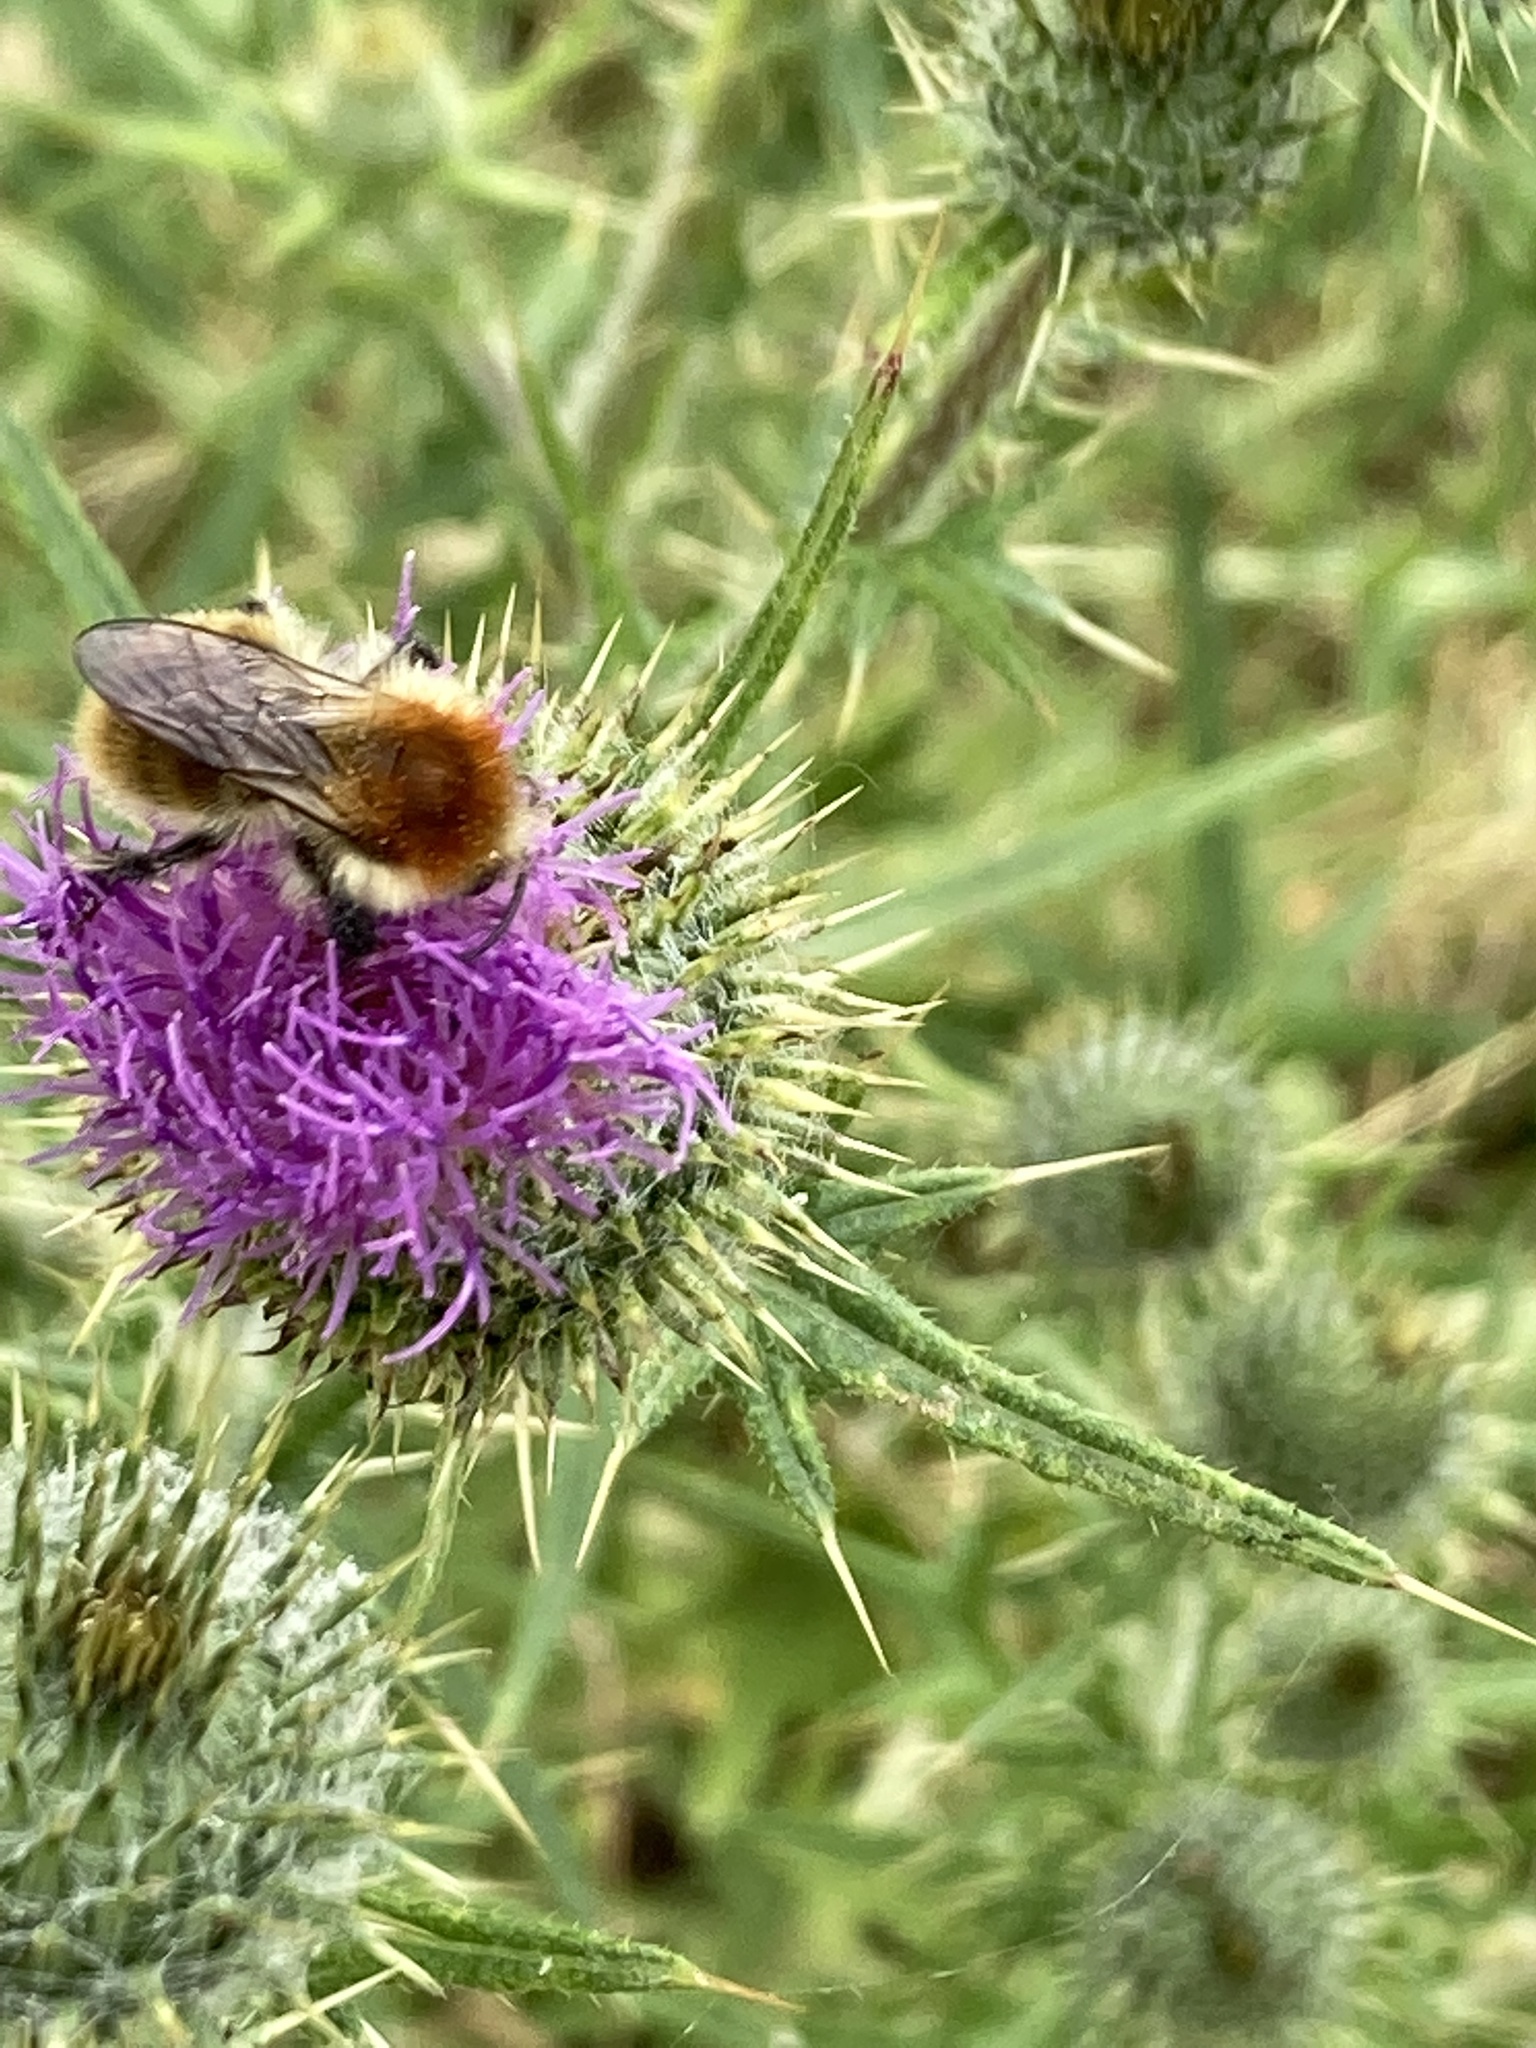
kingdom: Animalia
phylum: Arthropoda
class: Insecta
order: Hymenoptera
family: Apidae
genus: Bombus
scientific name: Bombus muscorum
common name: Moss carder-bee
